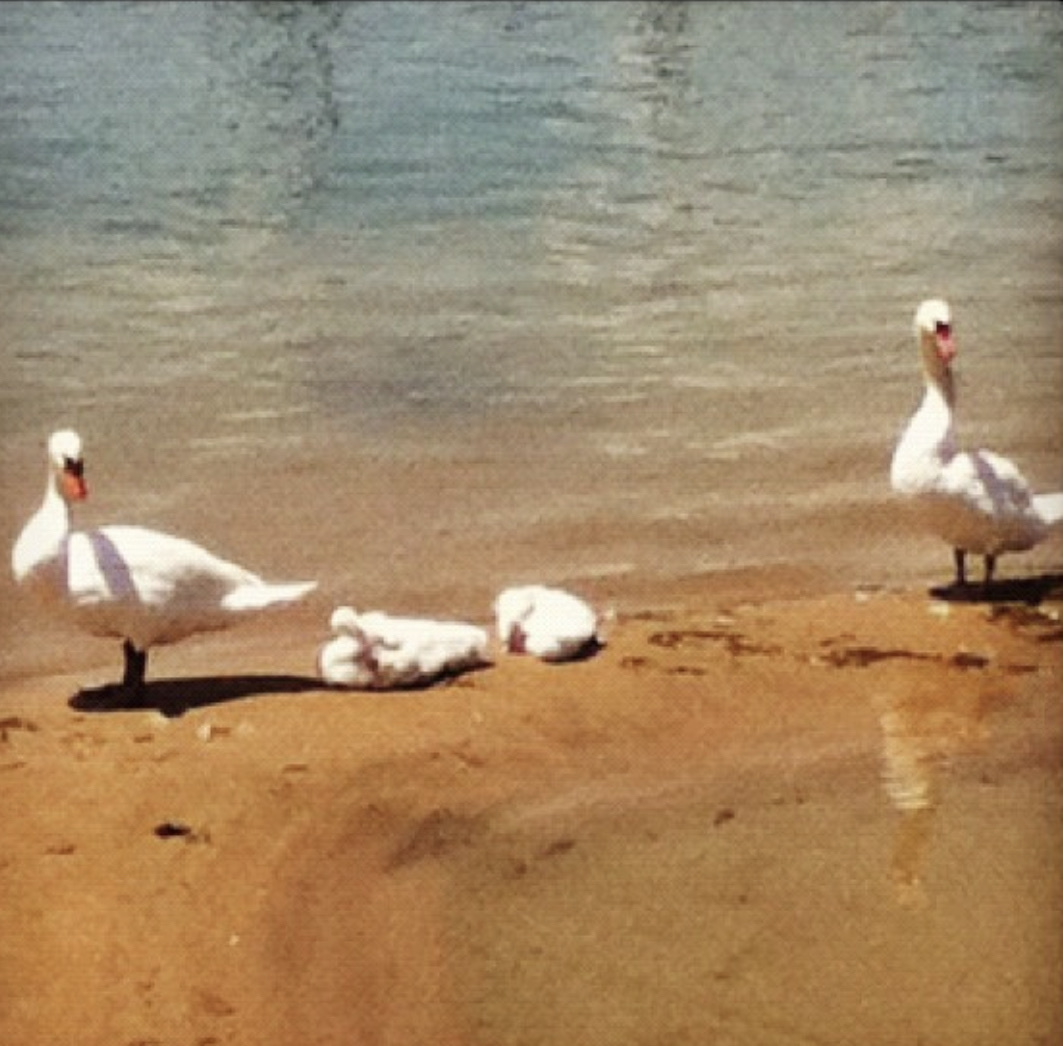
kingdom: Animalia
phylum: Chordata
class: Aves
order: Anseriformes
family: Anatidae
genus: Cygnus
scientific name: Cygnus olor
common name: Mute swan
